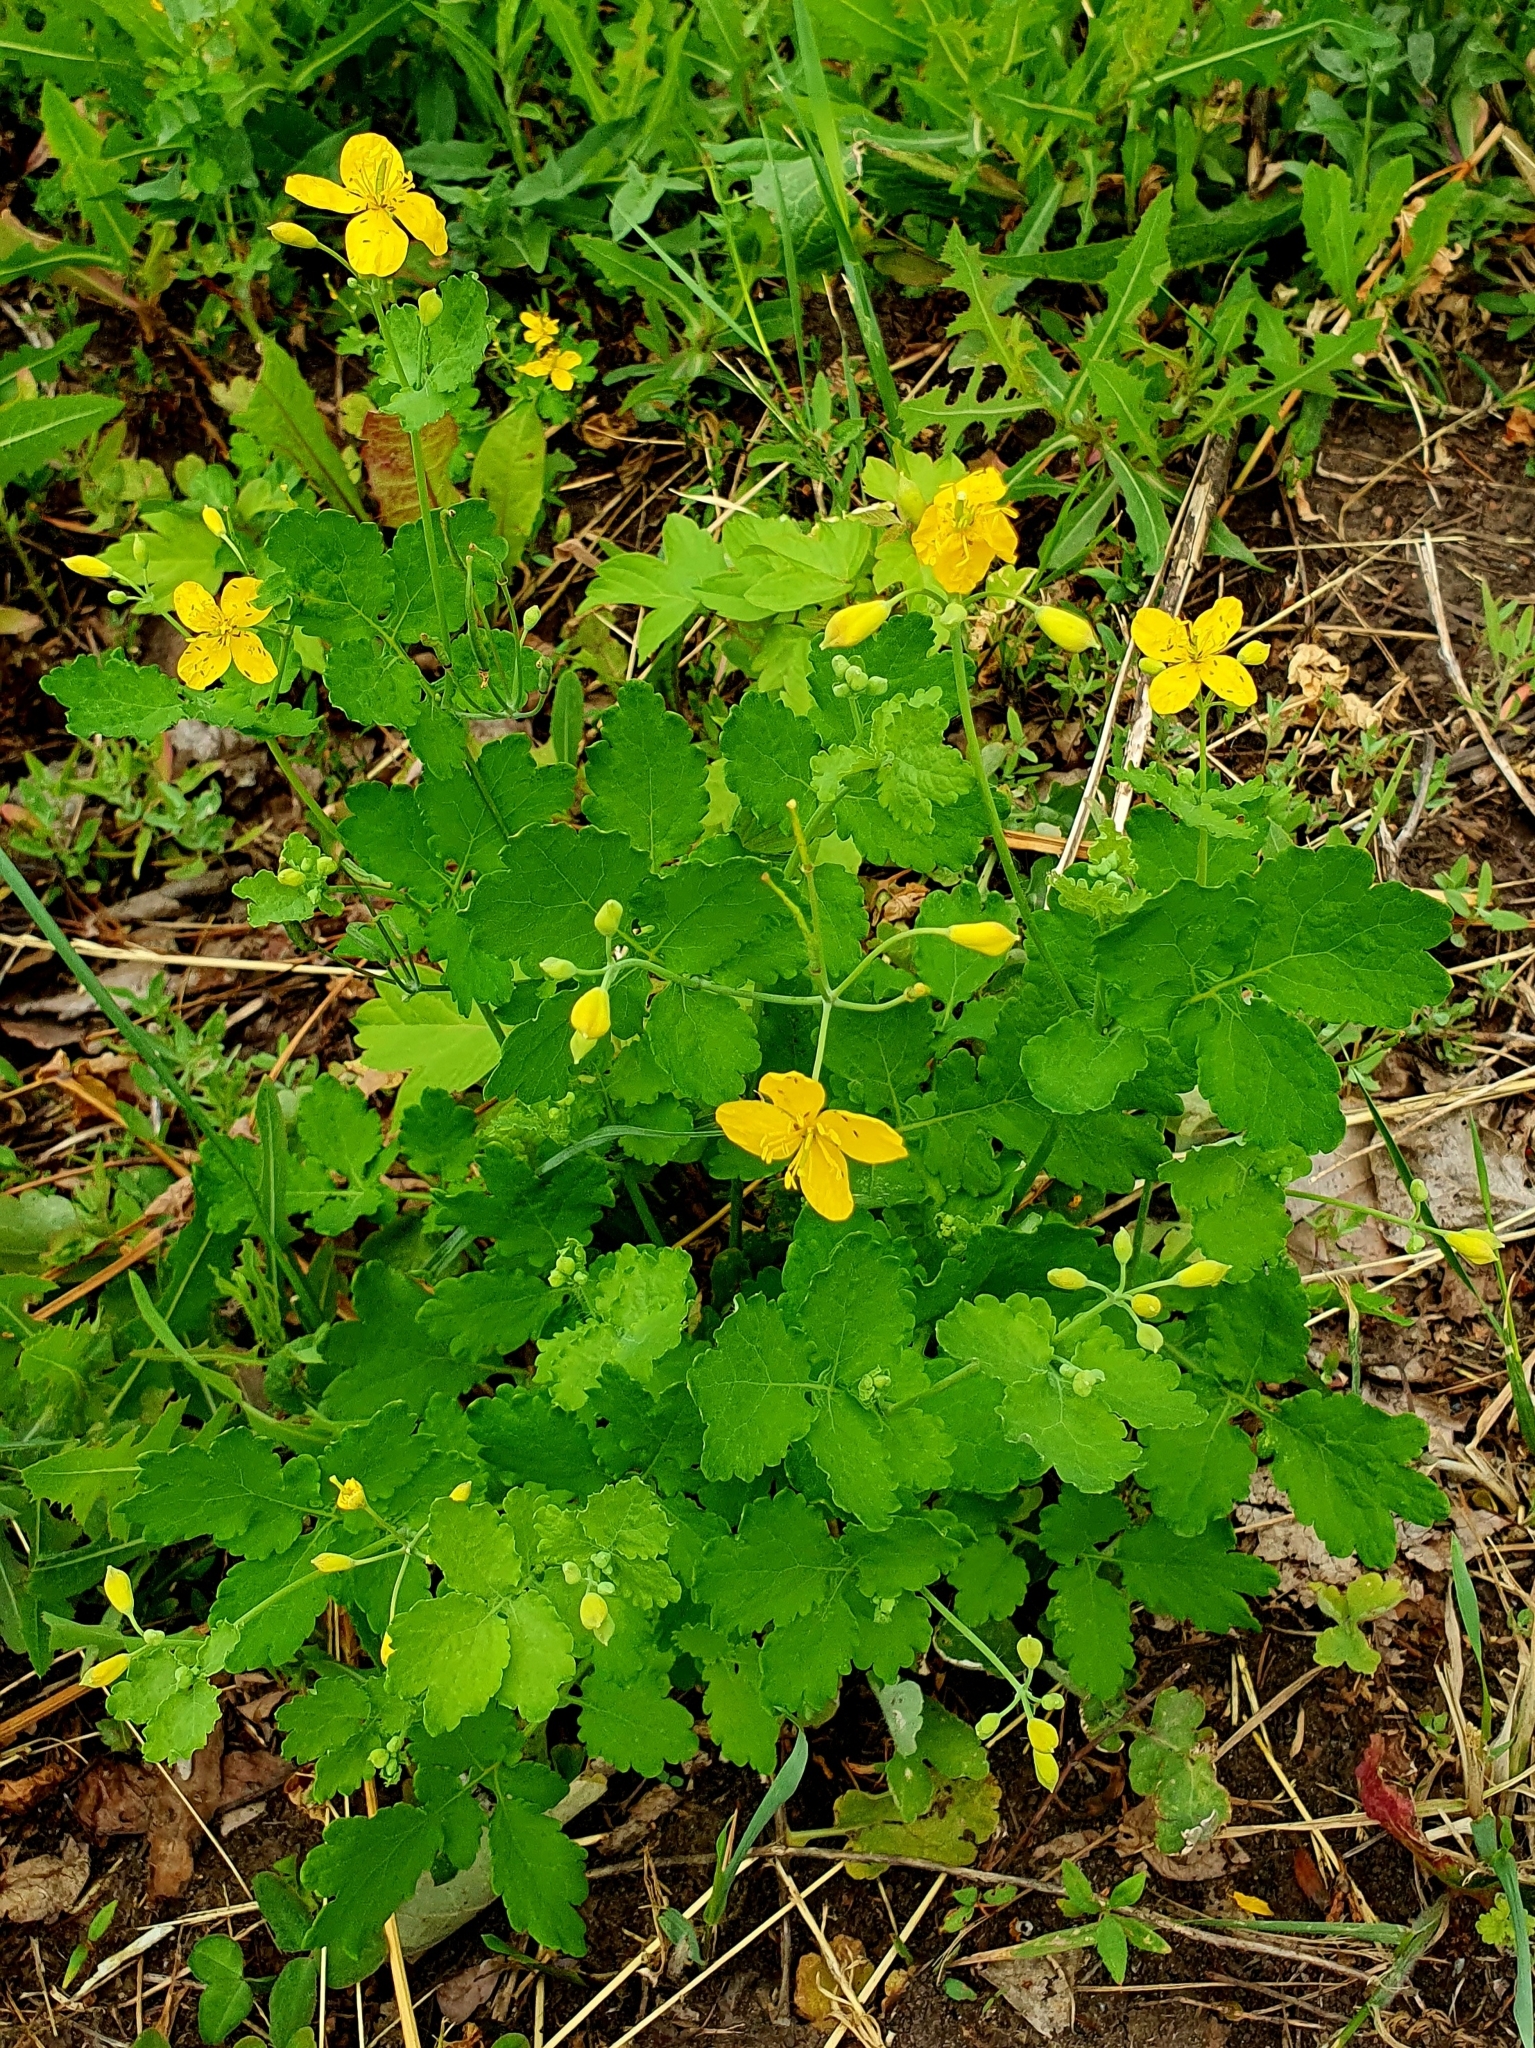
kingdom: Plantae
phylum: Tracheophyta
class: Magnoliopsida
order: Ranunculales
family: Papaveraceae
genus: Chelidonium
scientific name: Chelidonium majus
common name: Greater celandine
